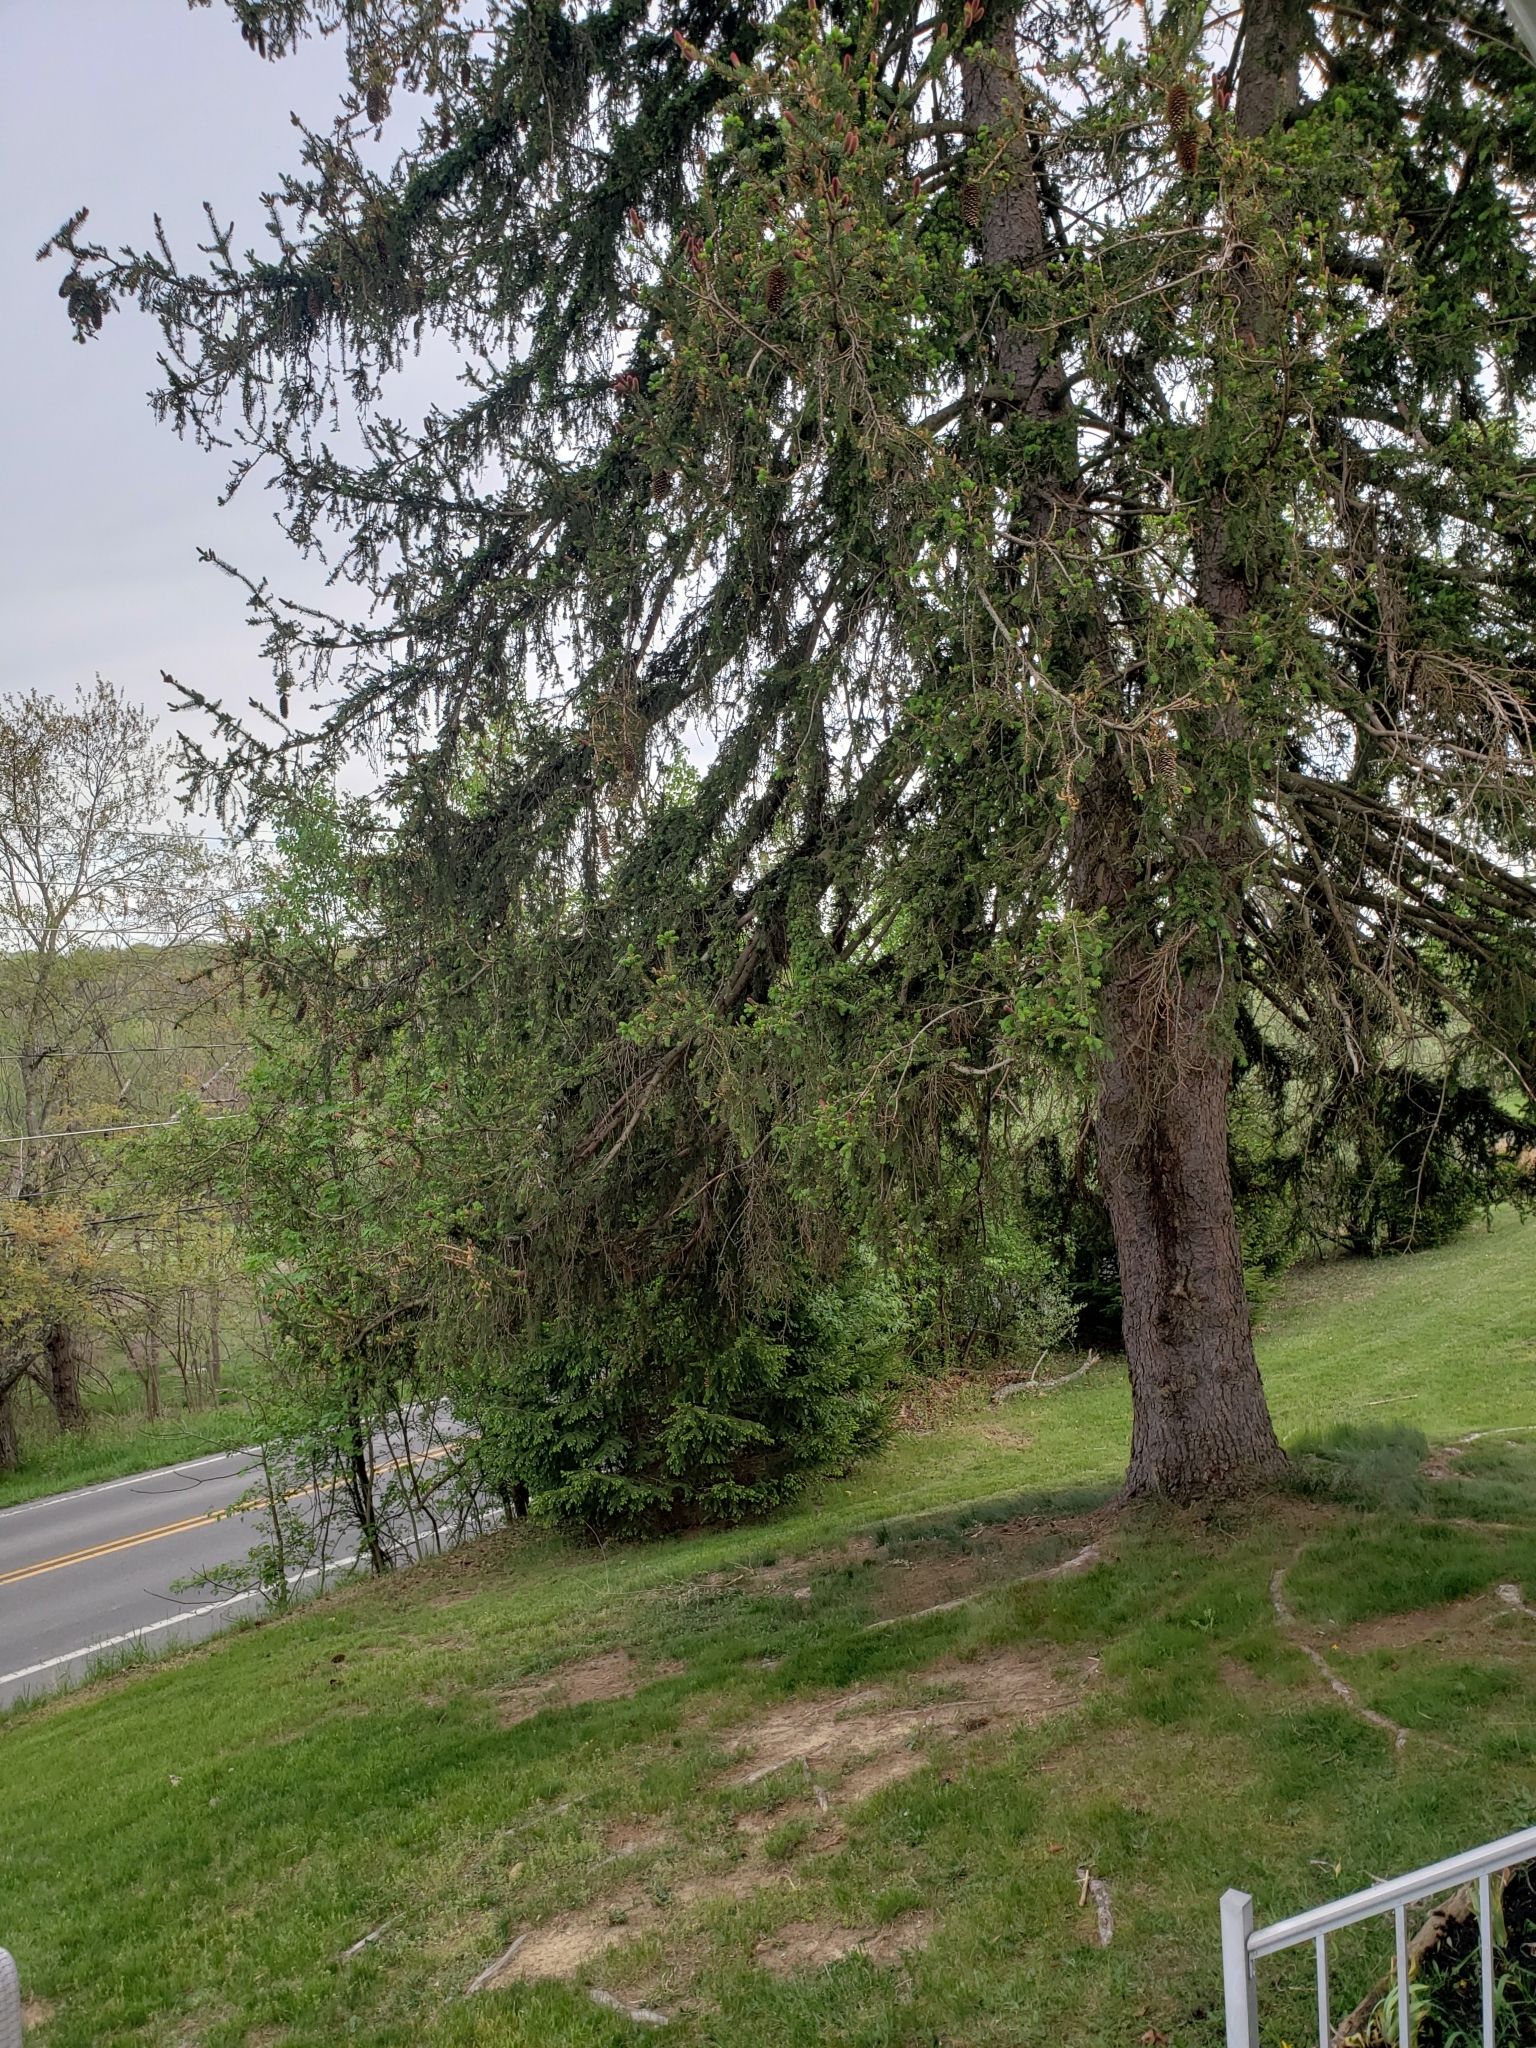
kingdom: Animalia
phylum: Chordata
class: Aves
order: Passeriformes
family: Troglodytidae
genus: Troglodytes
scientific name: Troglodytes aedon
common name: House wren
